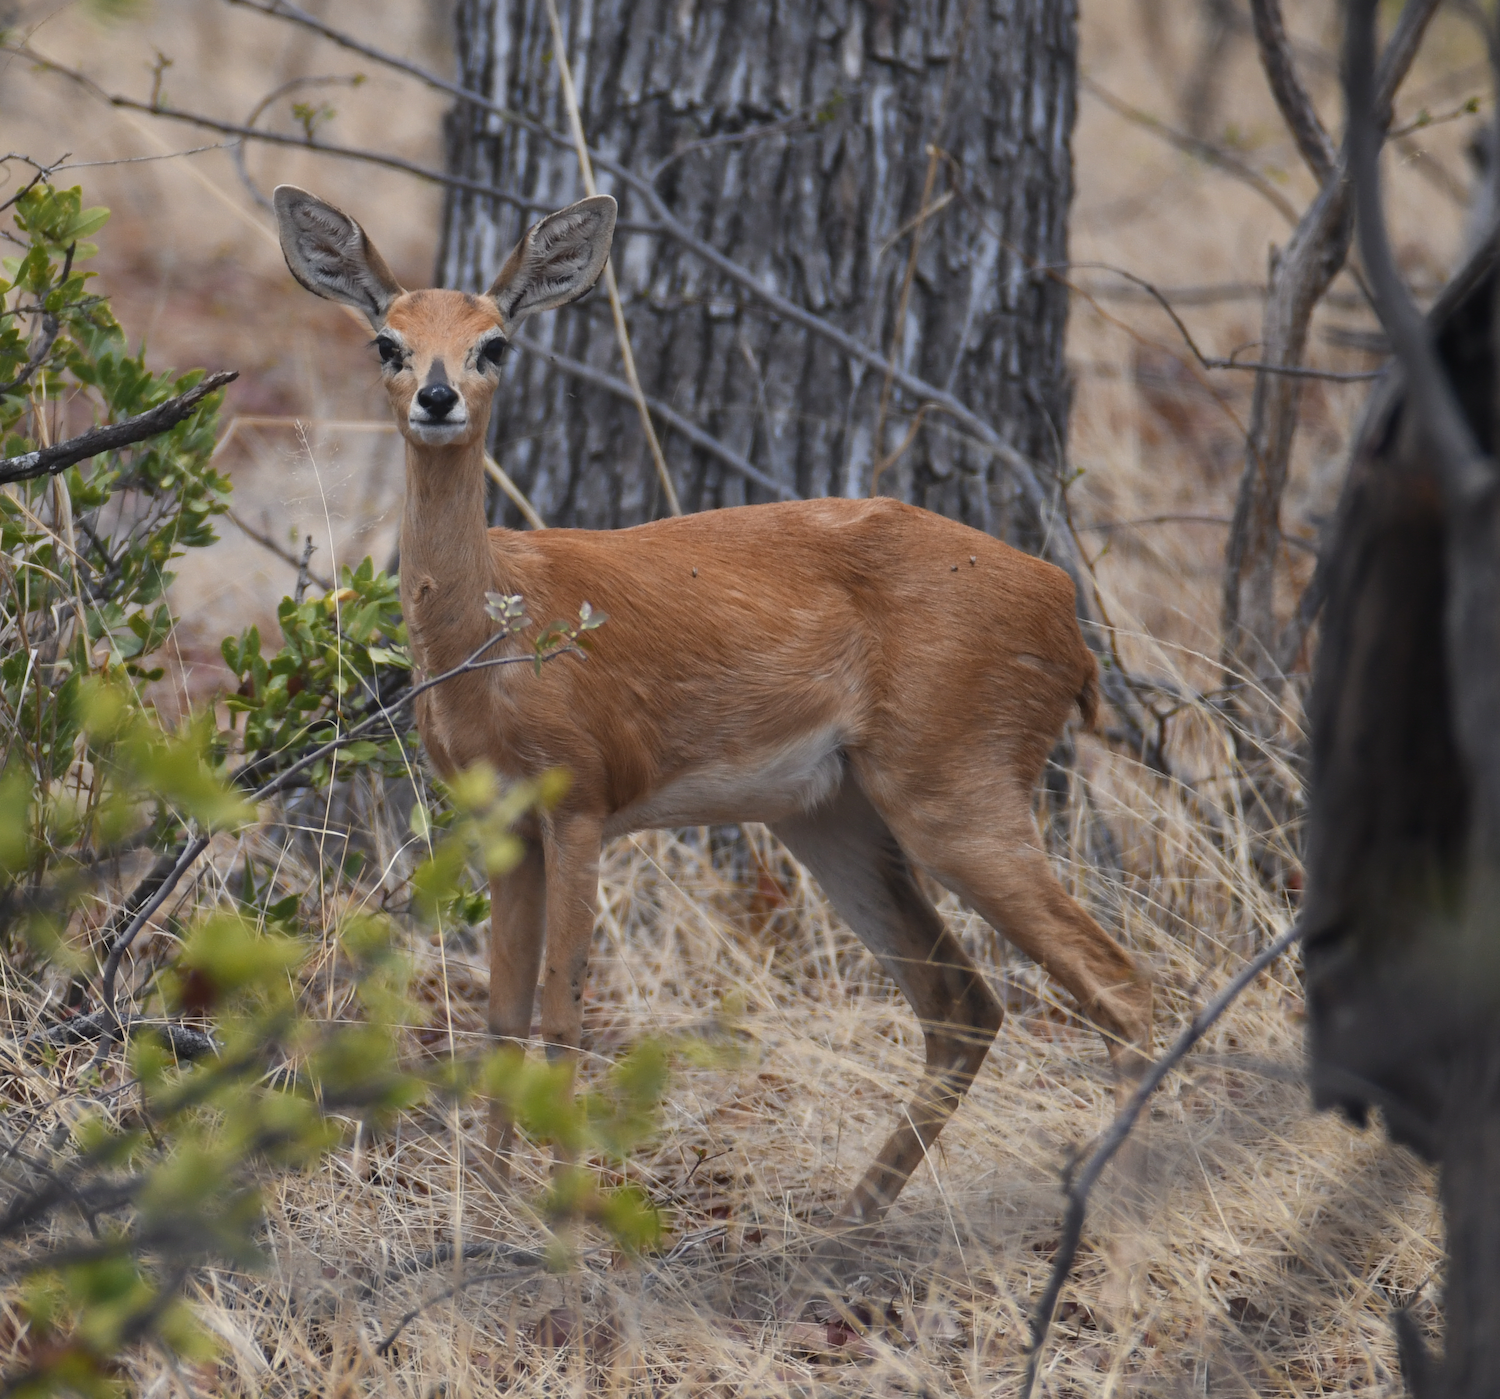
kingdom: Animalia
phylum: Chordata
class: Mammalia
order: Artiodactyla
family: Bovidae
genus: Raphicerus
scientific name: Raphicerus campestris
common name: Steenbok
